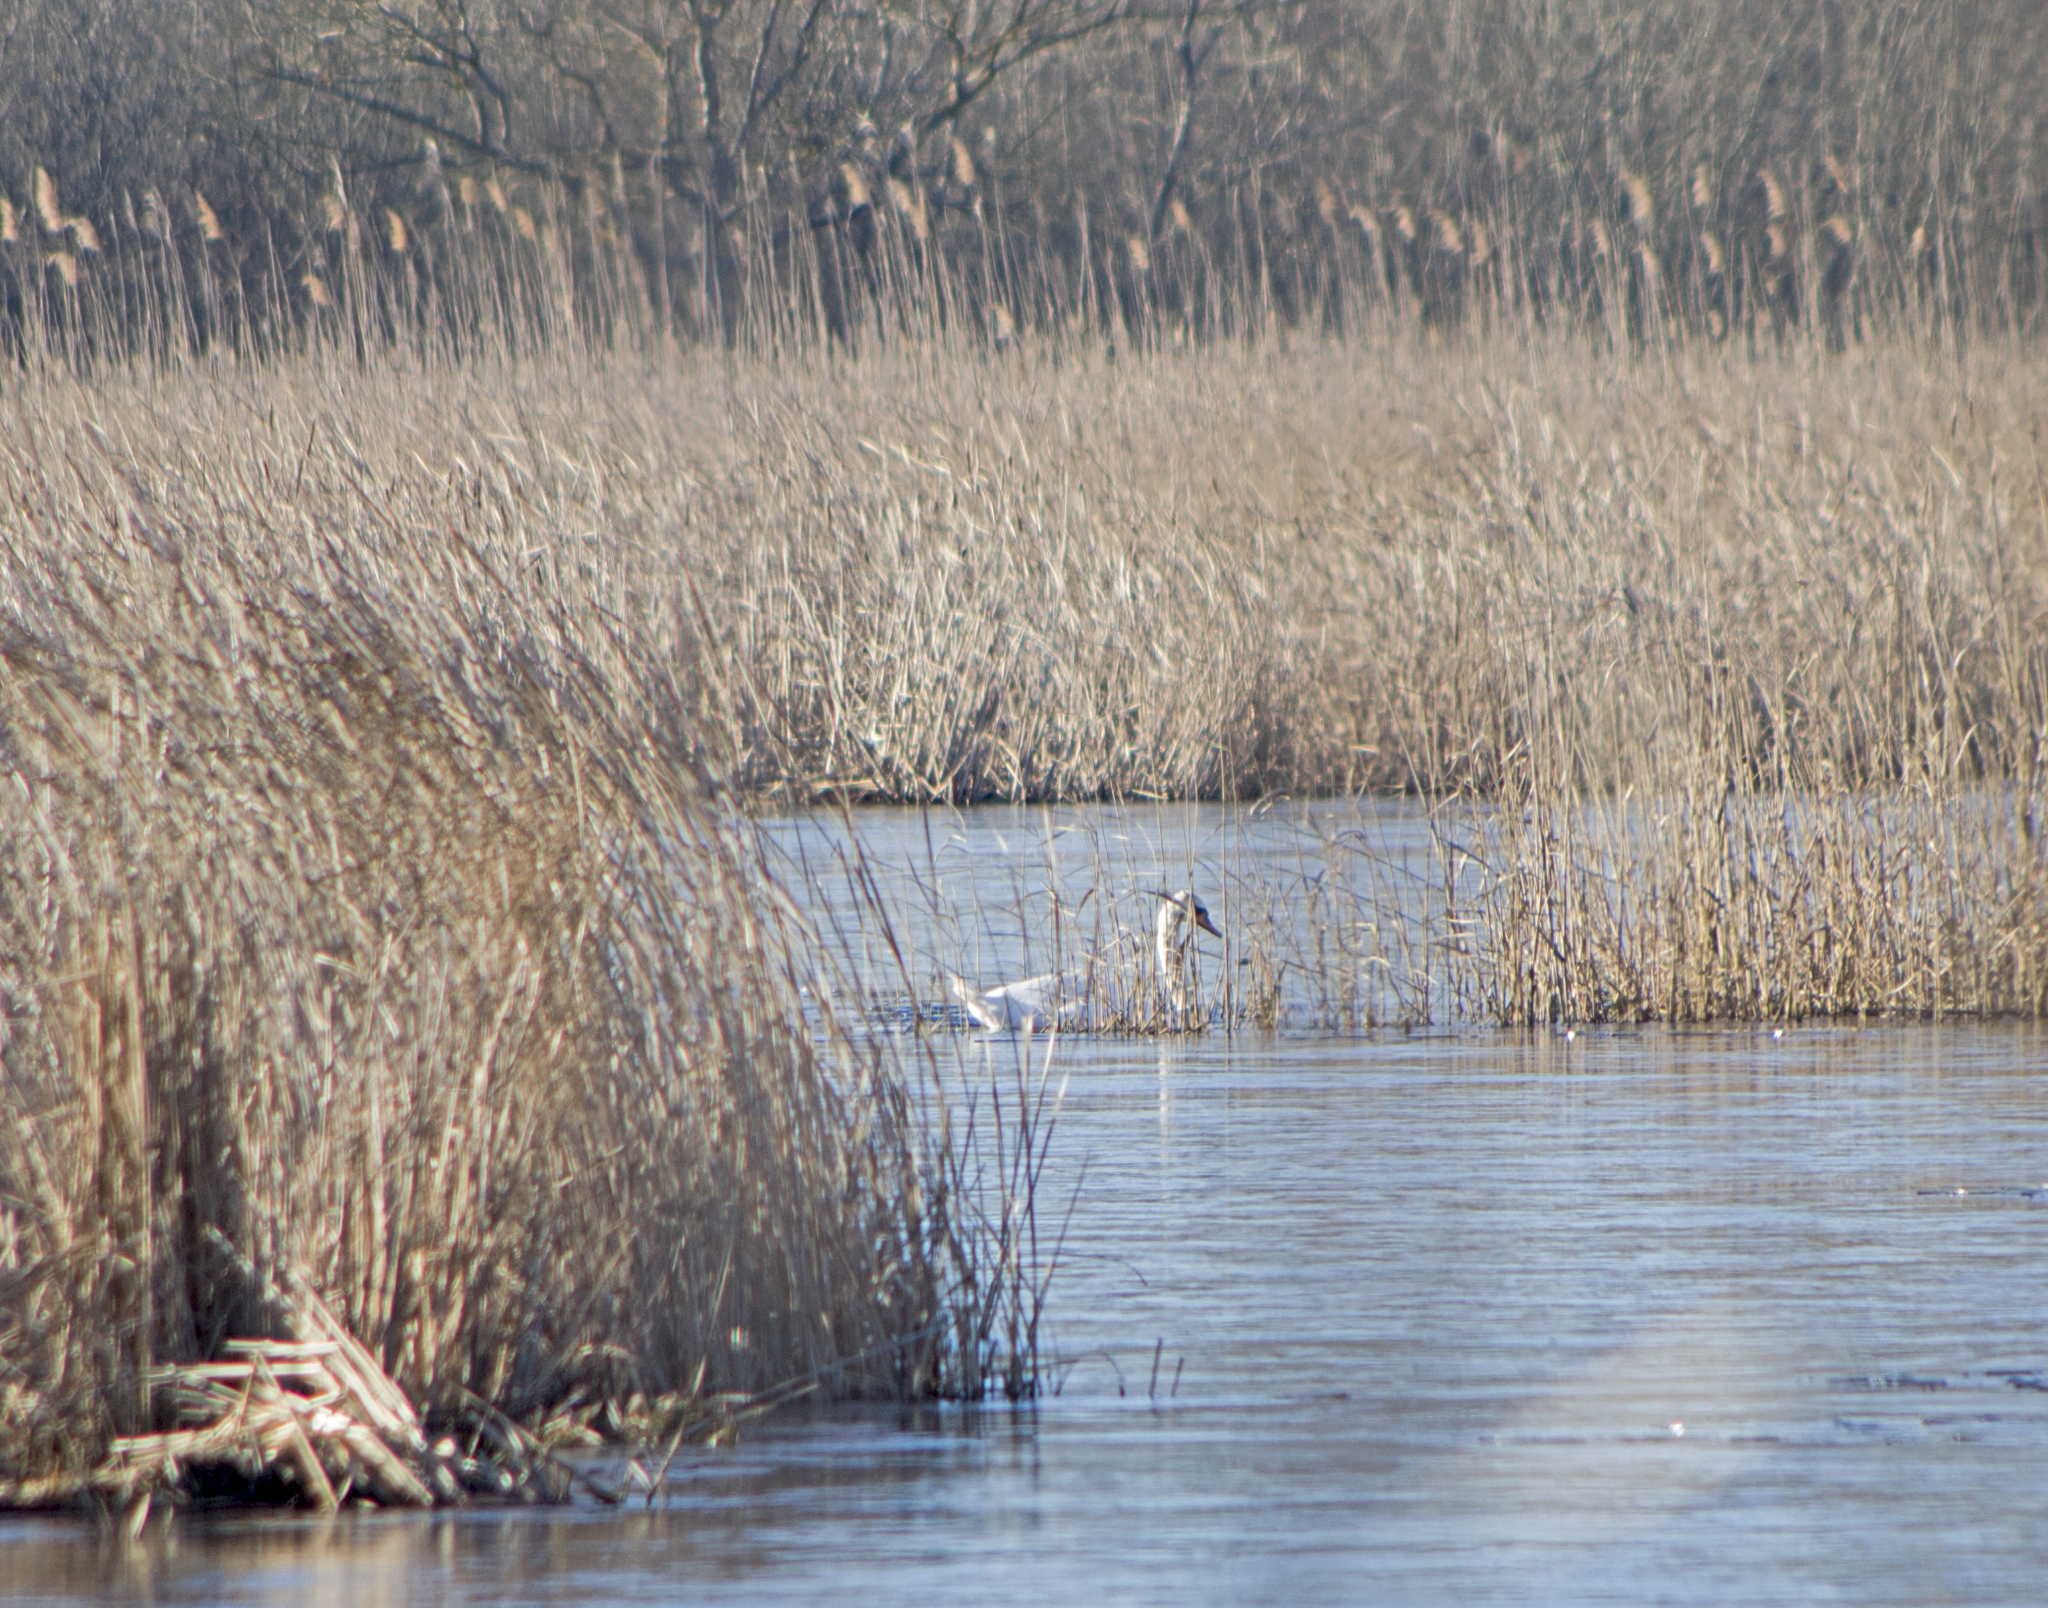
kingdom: Animalia
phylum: Chordata
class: Aves
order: Anseriformes
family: Anatidae
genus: Cygnus
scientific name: Cygnus olor
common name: Mute swan
